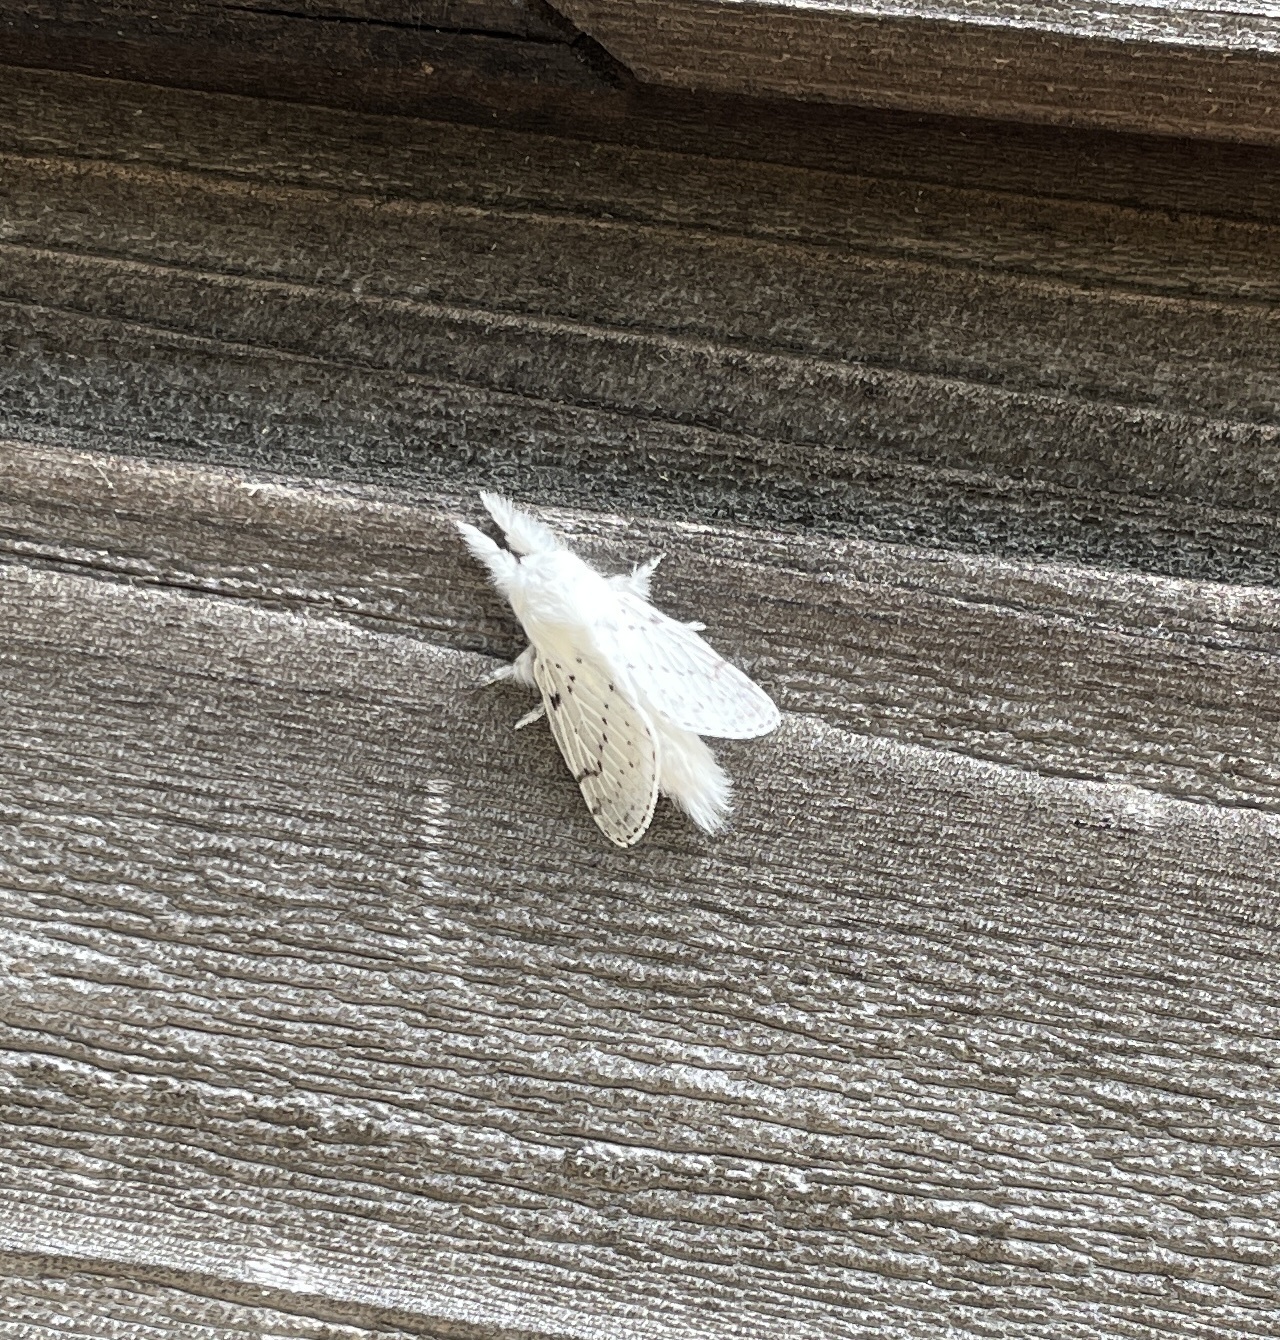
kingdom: Animalia
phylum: Arthropoda
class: Insecta
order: Lepidoptera
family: Lasiocampidae
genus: Artace
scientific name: Artace cribrarius
